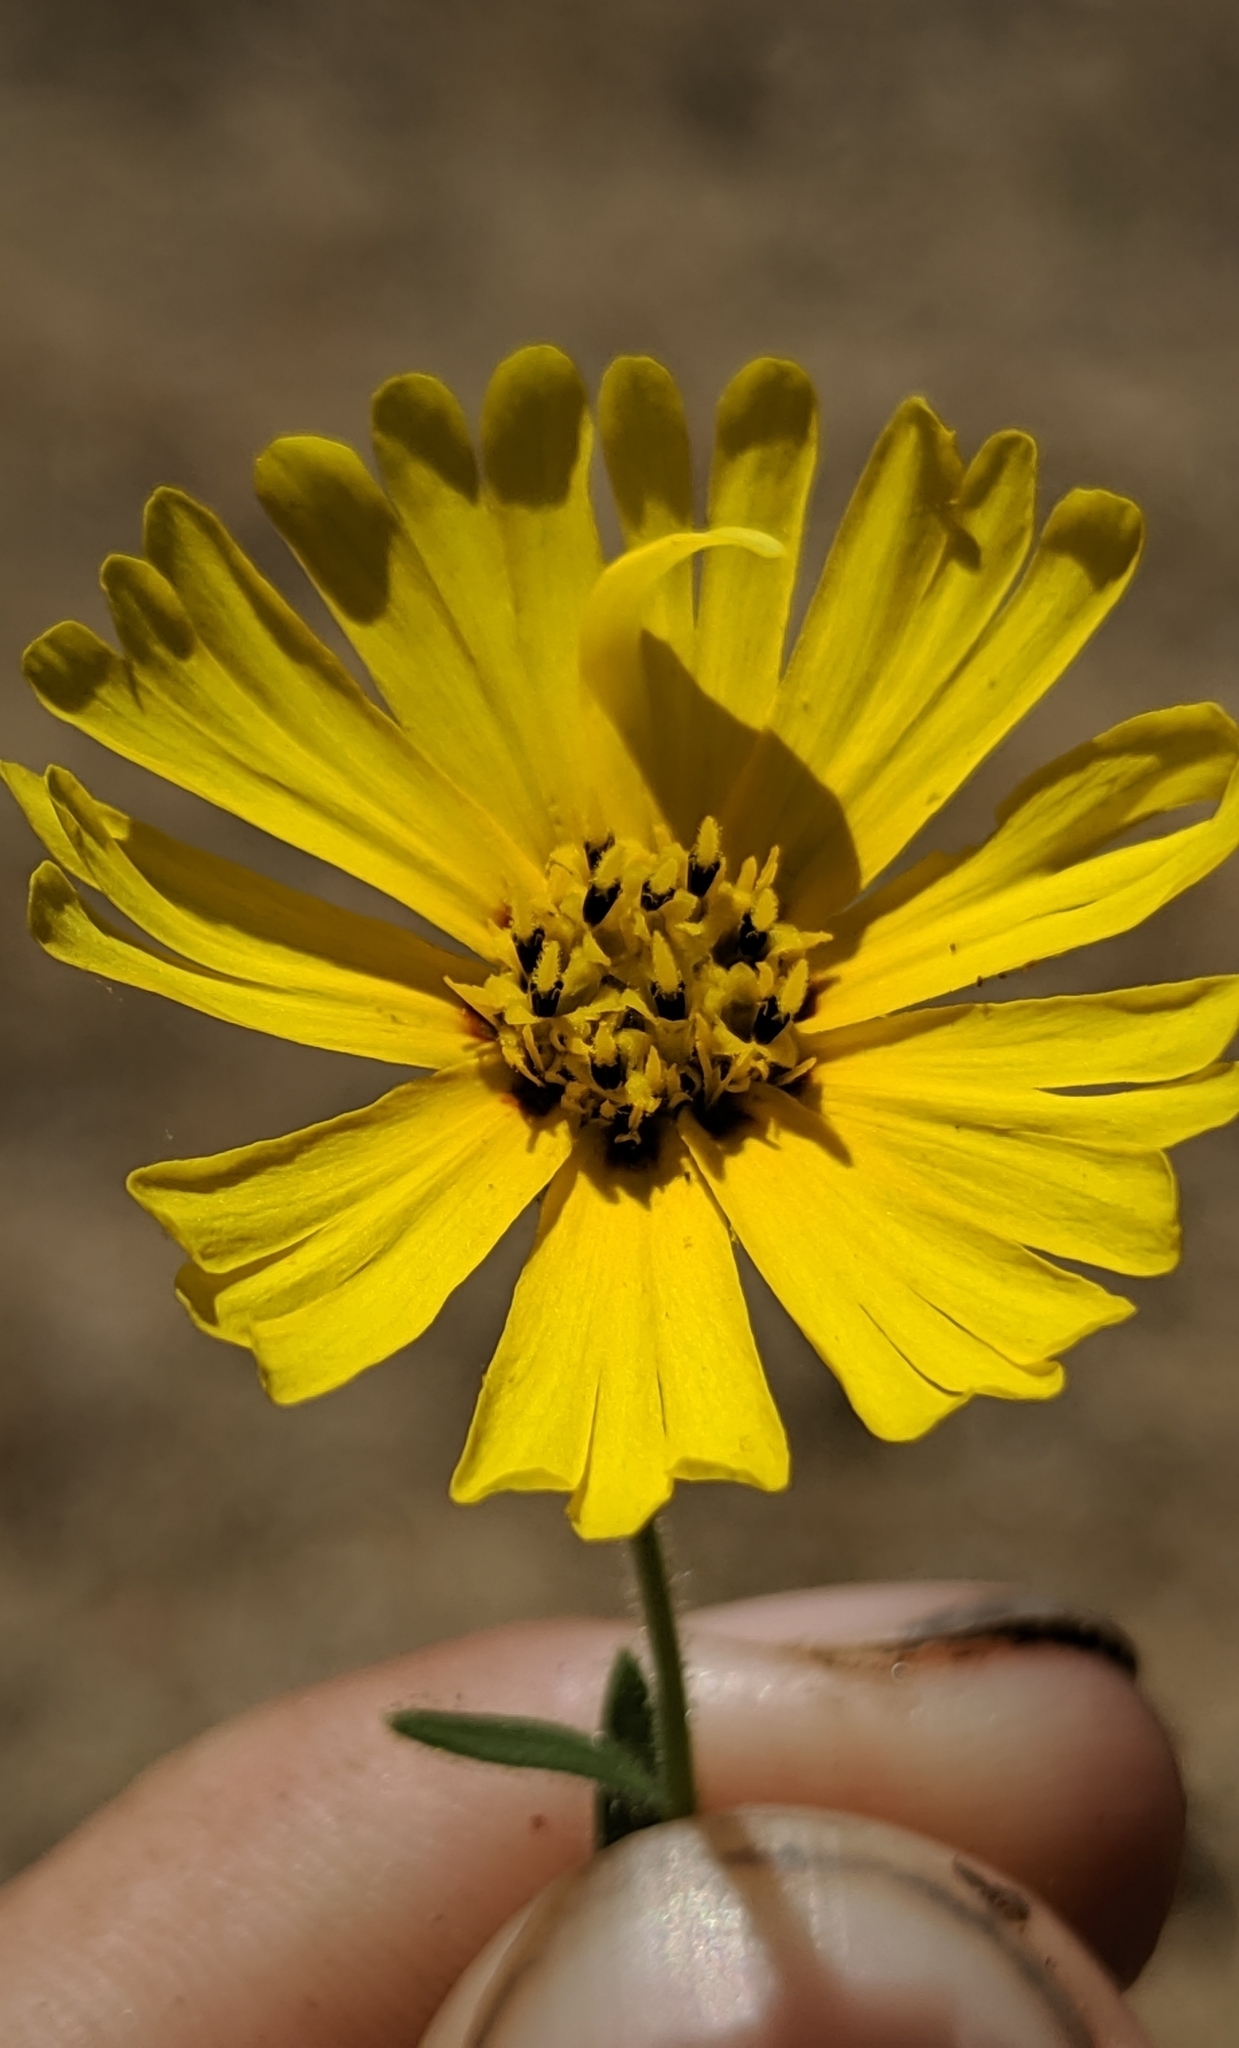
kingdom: Plantae
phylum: Tracheophyta
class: Magnoliopsida
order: Asterales
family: Asteraceae
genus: Madia
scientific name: Madia elegans
